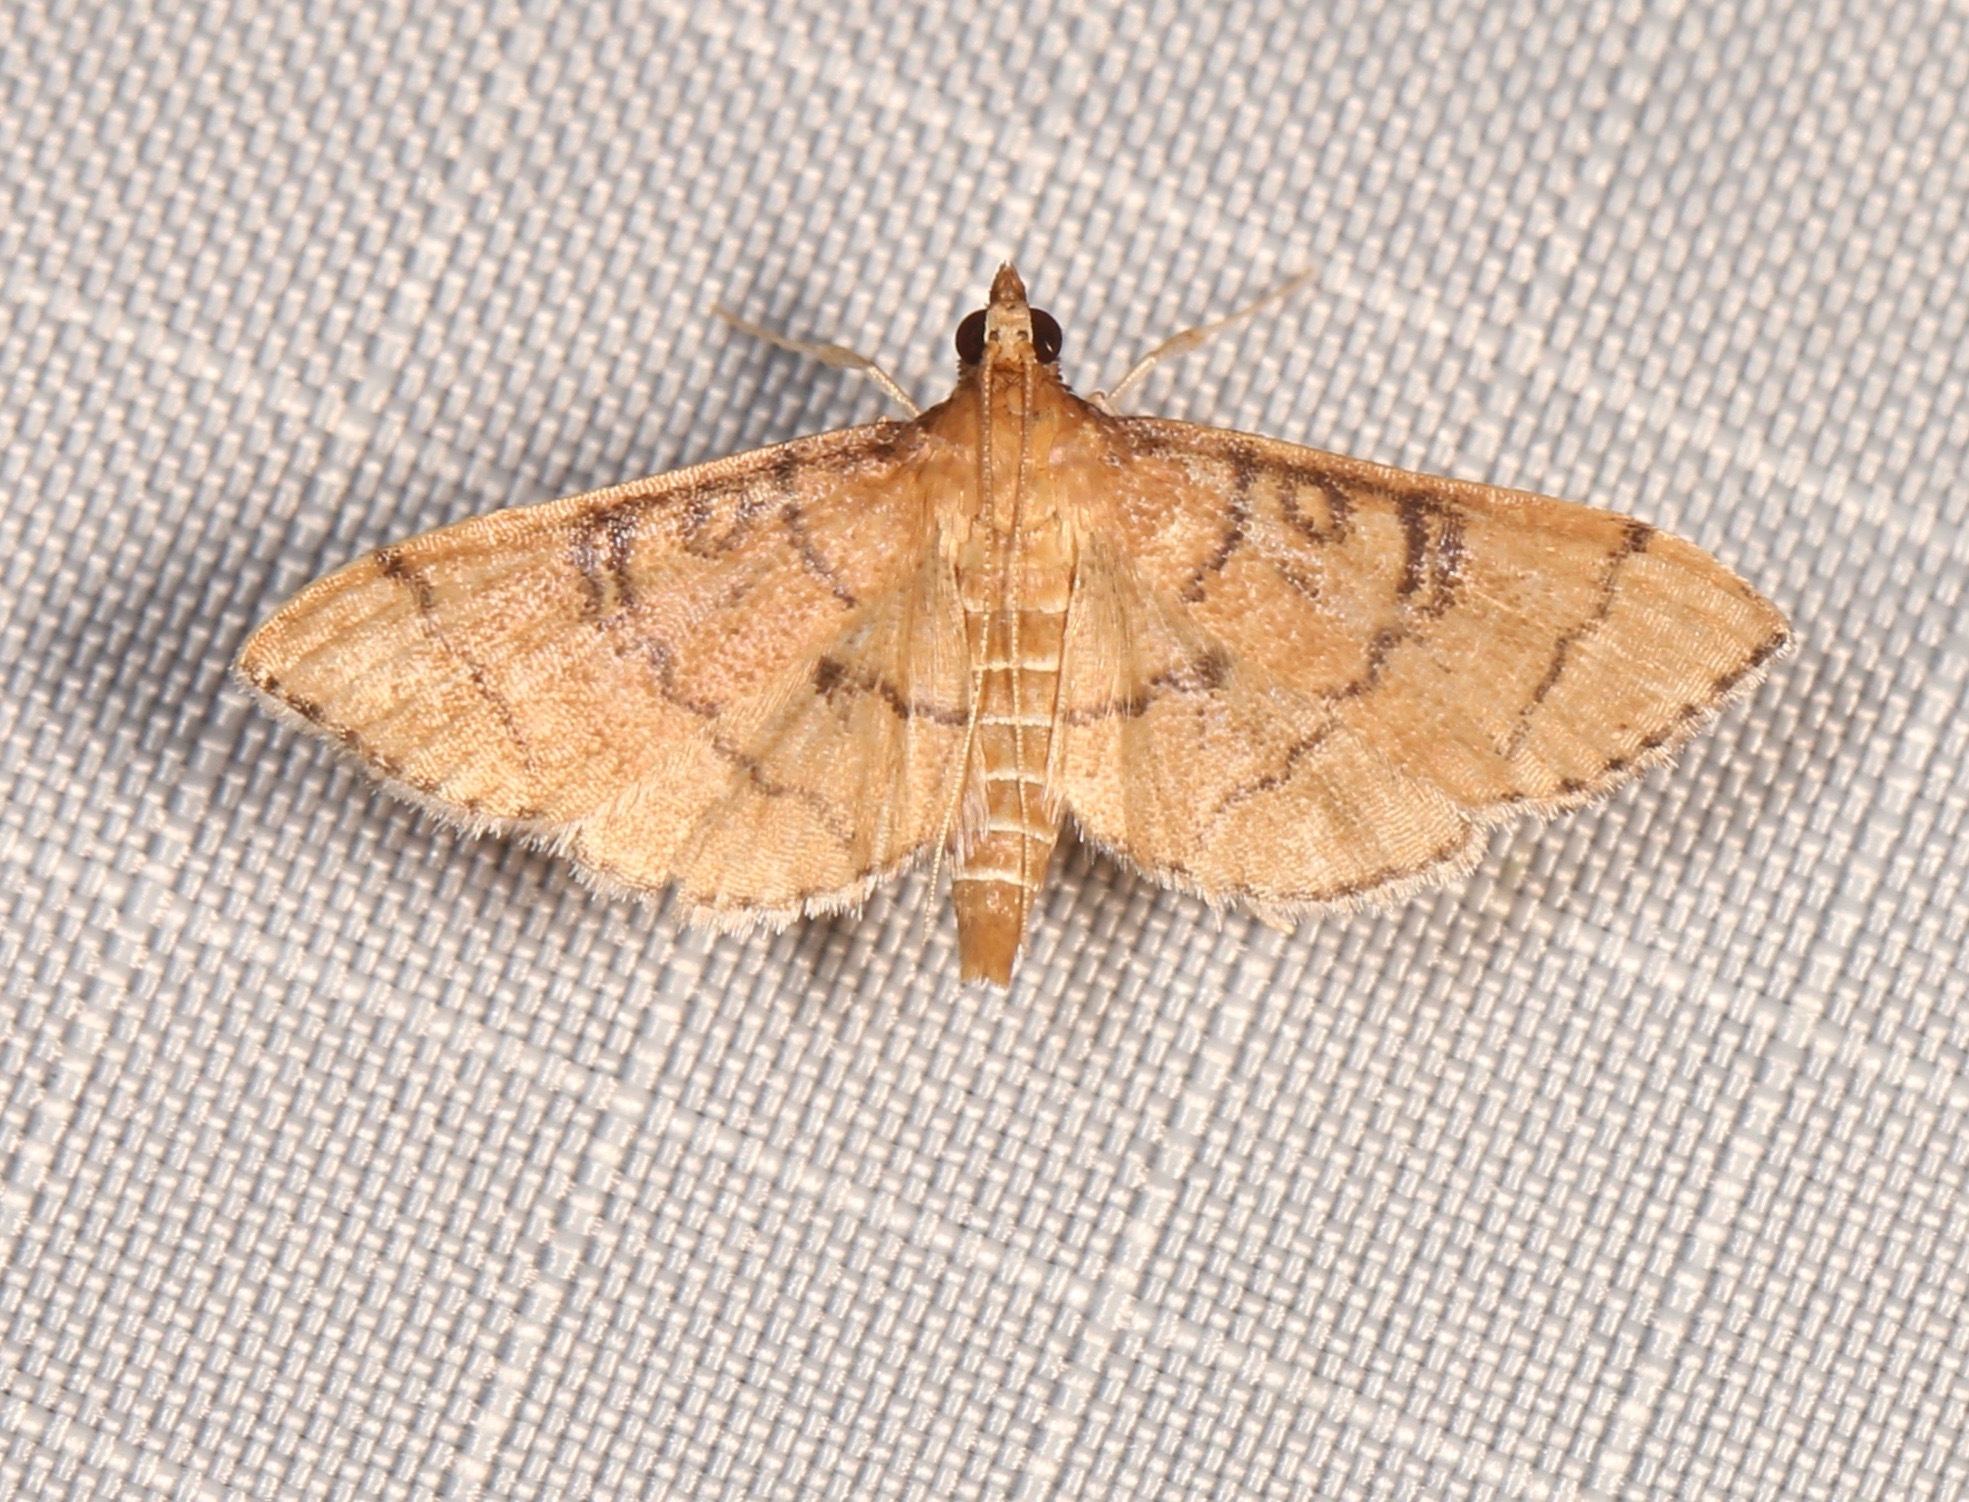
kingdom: Animalia
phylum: Arthropoda
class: Insecta
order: Lepidoptera
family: Crambidae
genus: Lamprosema
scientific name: Lamprosema Blepharomastix ranalis
